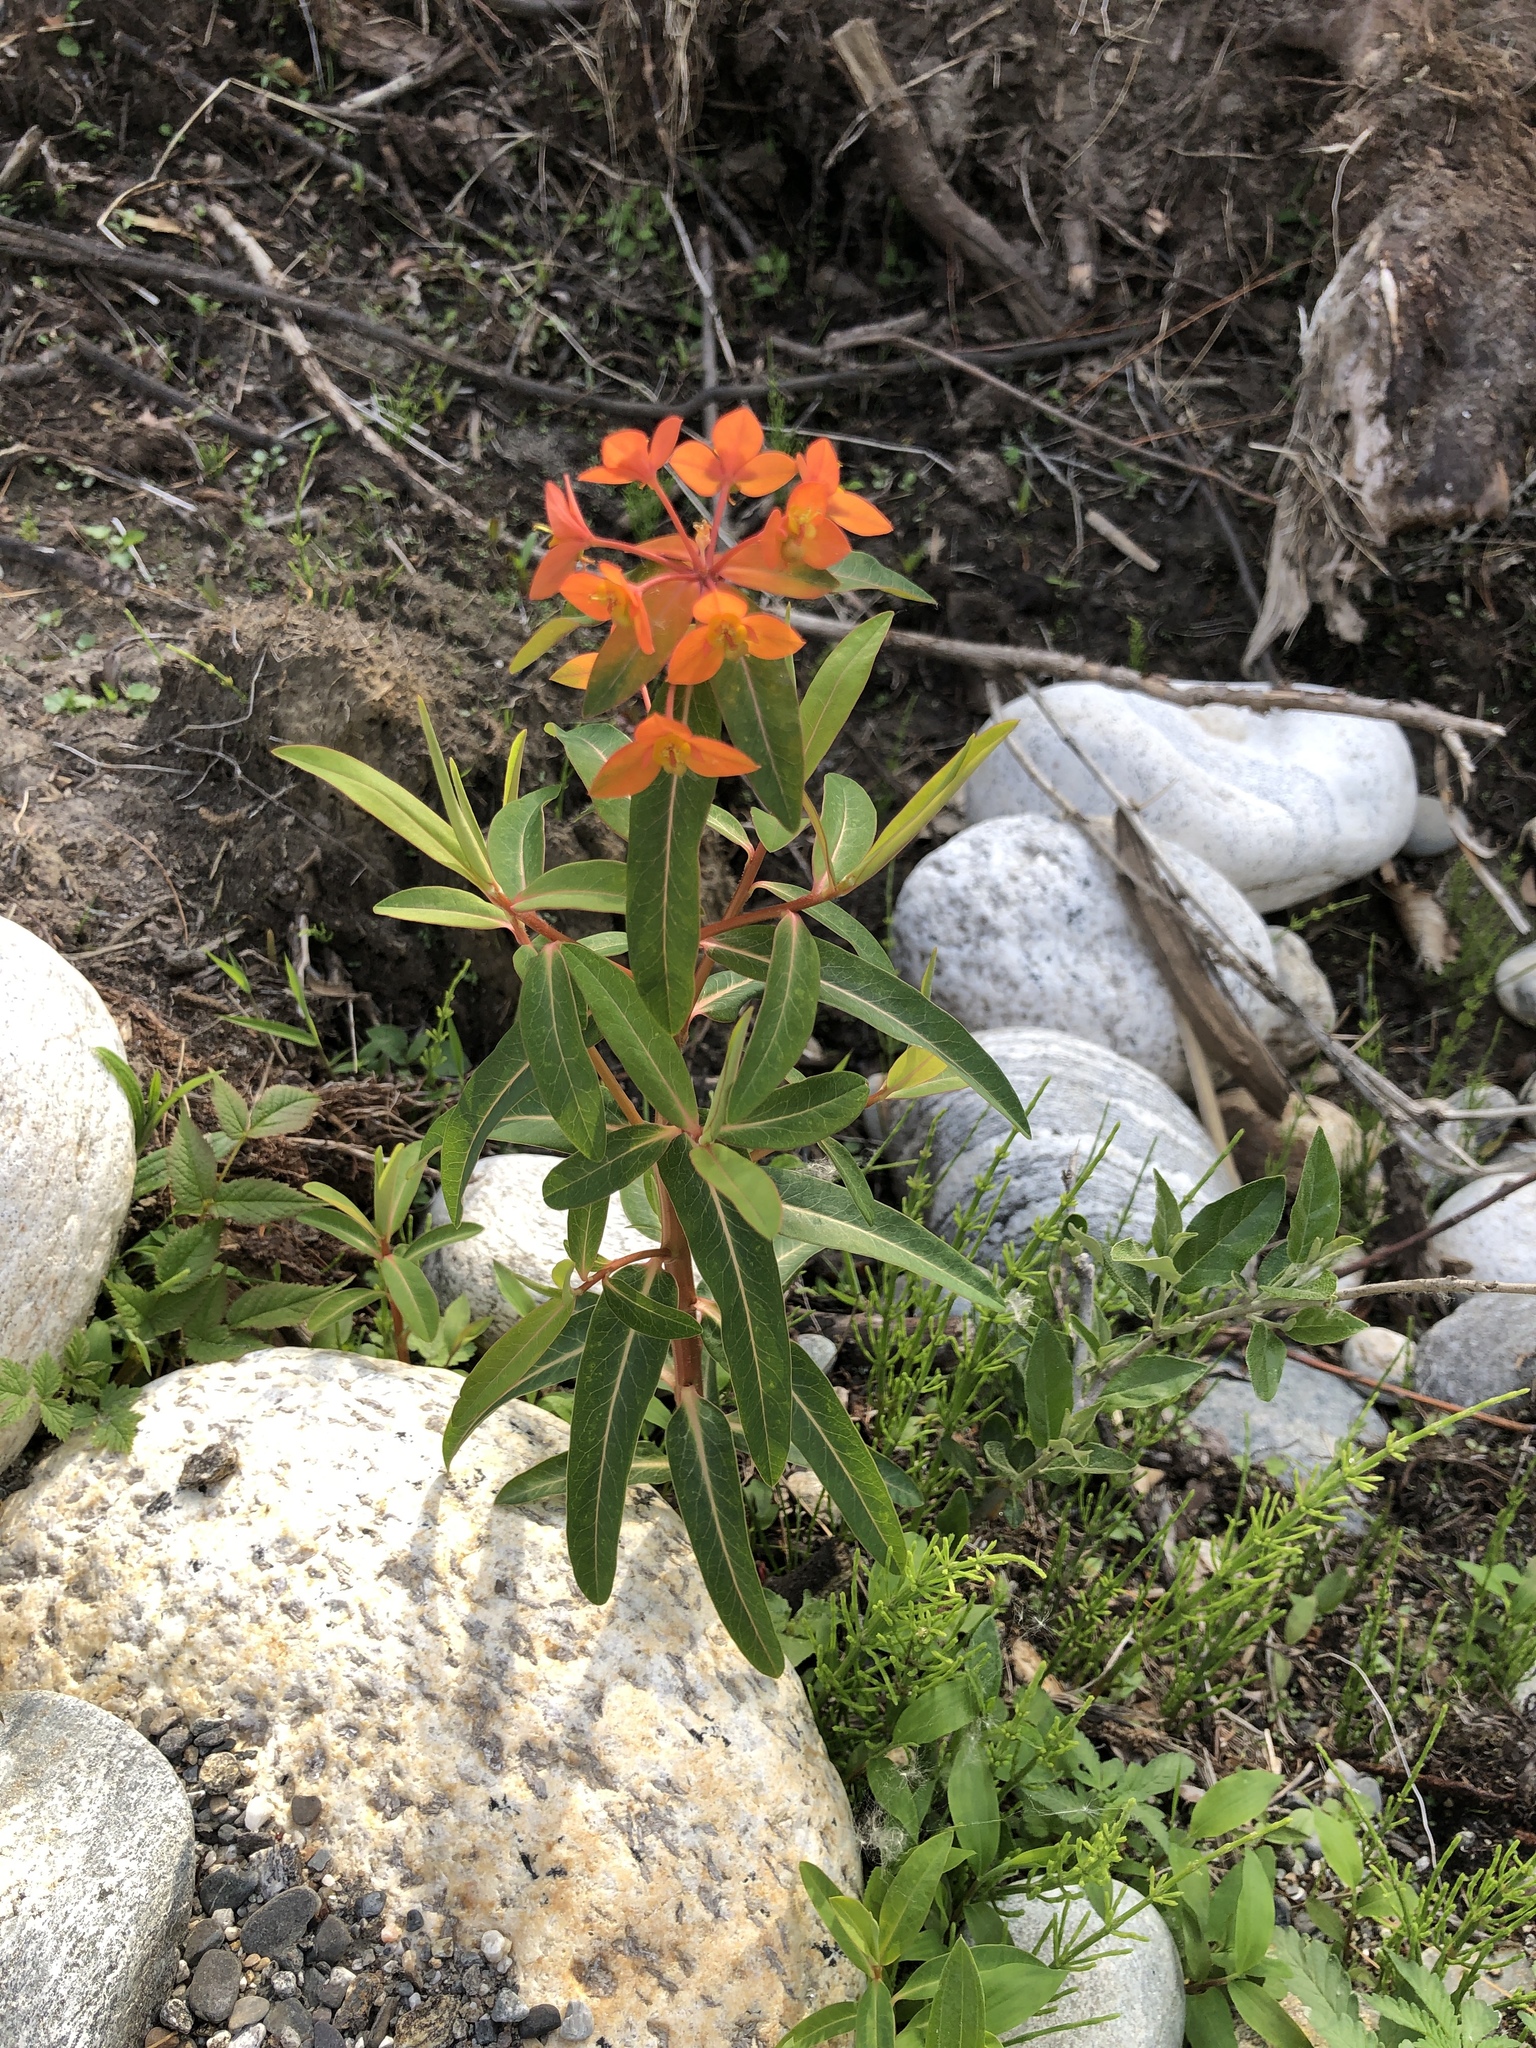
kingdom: Plantae
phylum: Tracheophyta
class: Magnoliopsida
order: Malpighiales
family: Euphorbiaceae
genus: Euphorbia
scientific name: Euphorbia griffithii
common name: Griffith's spurge
